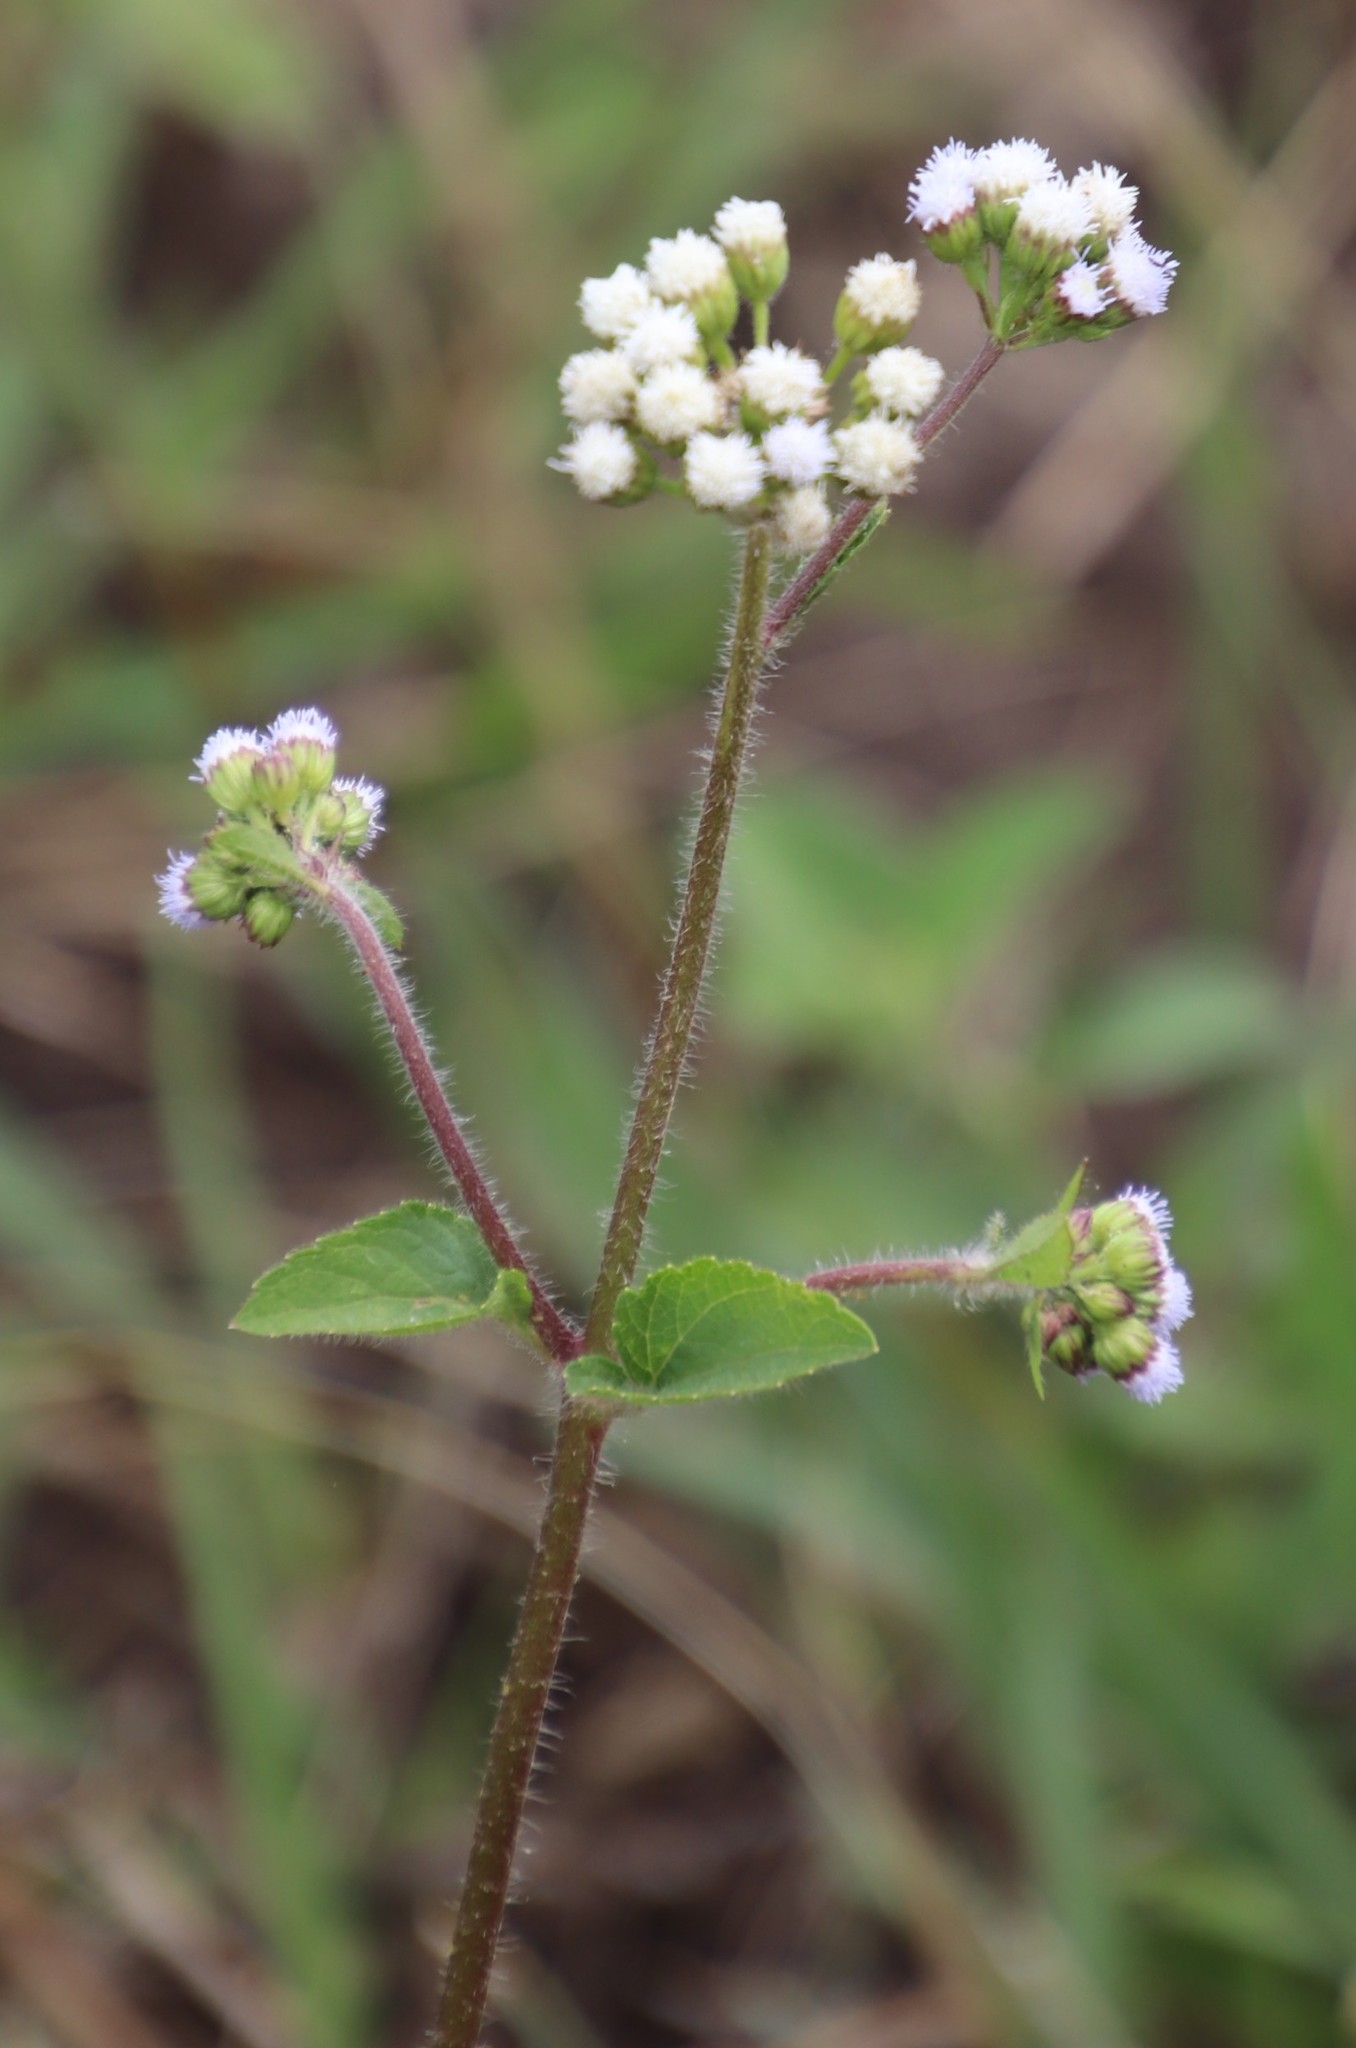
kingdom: Plantae
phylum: Tracheophyta
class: Magnoliopsida
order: Asterales
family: Asteraceae
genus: Ageratum
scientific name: Ageratum conyzoides
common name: Tropical whiteweed
